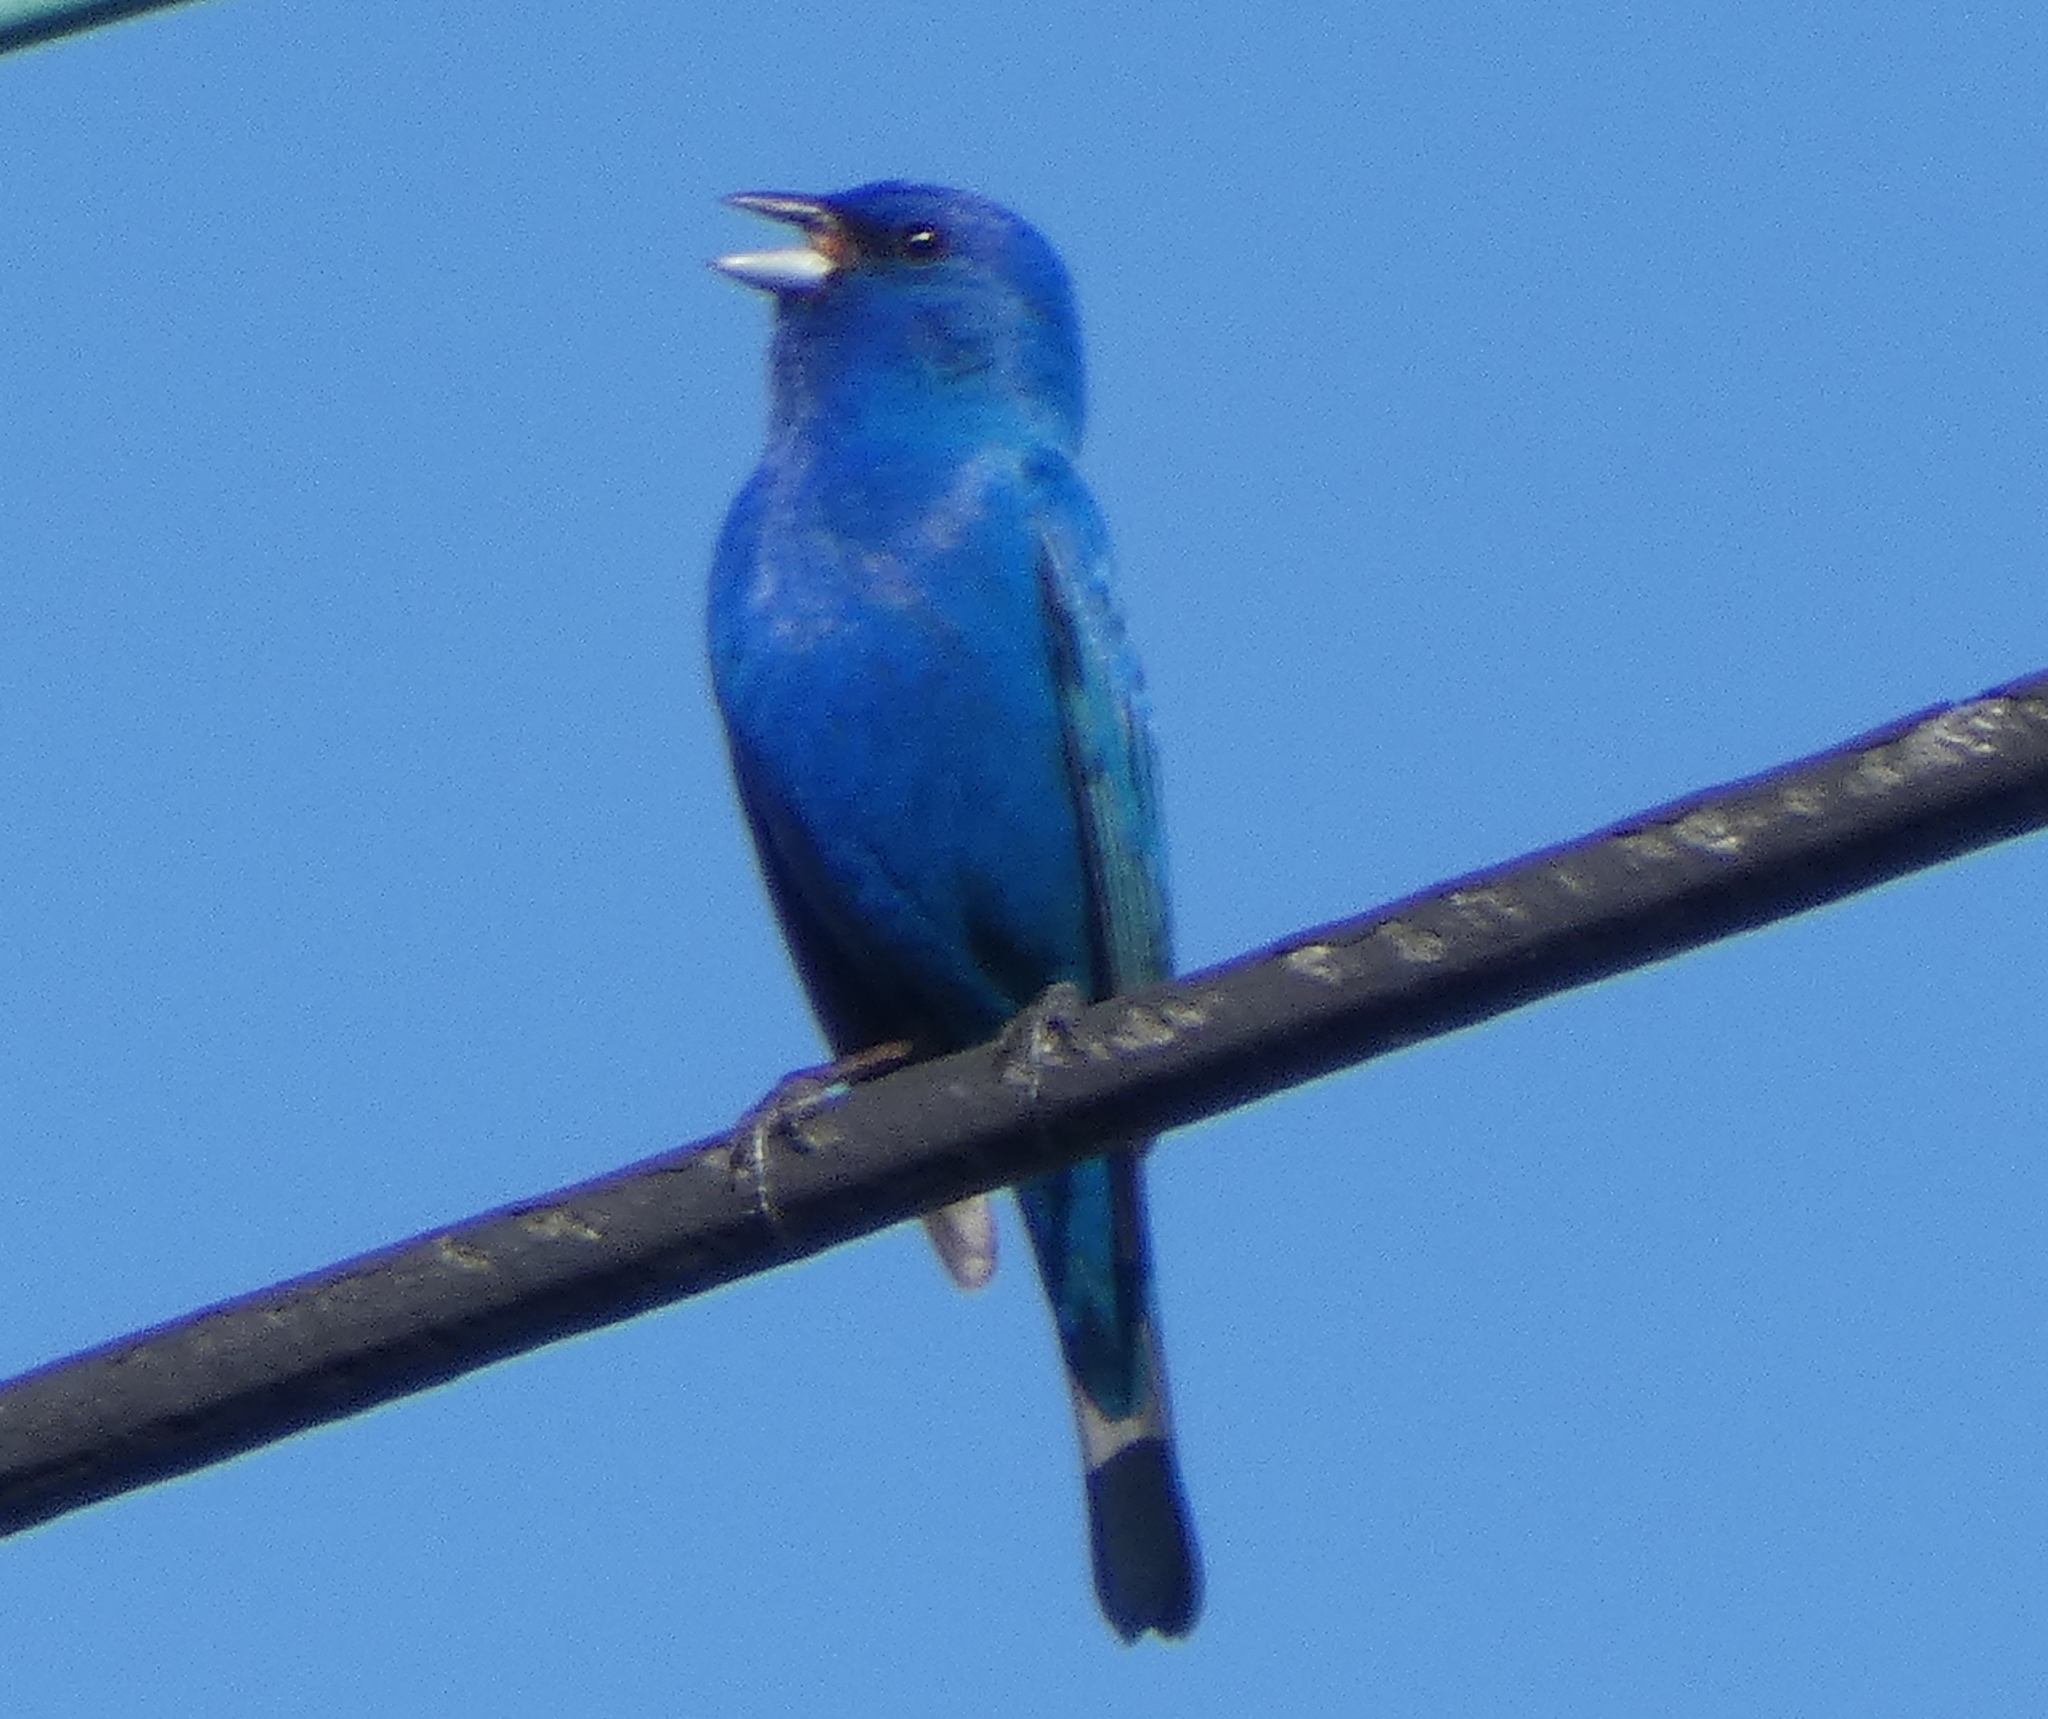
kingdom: Animalia
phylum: Chordata
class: Aves
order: Passeriformes
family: Cardinalidae
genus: Passerina
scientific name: Passerina cyanea
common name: Indigo bunting
